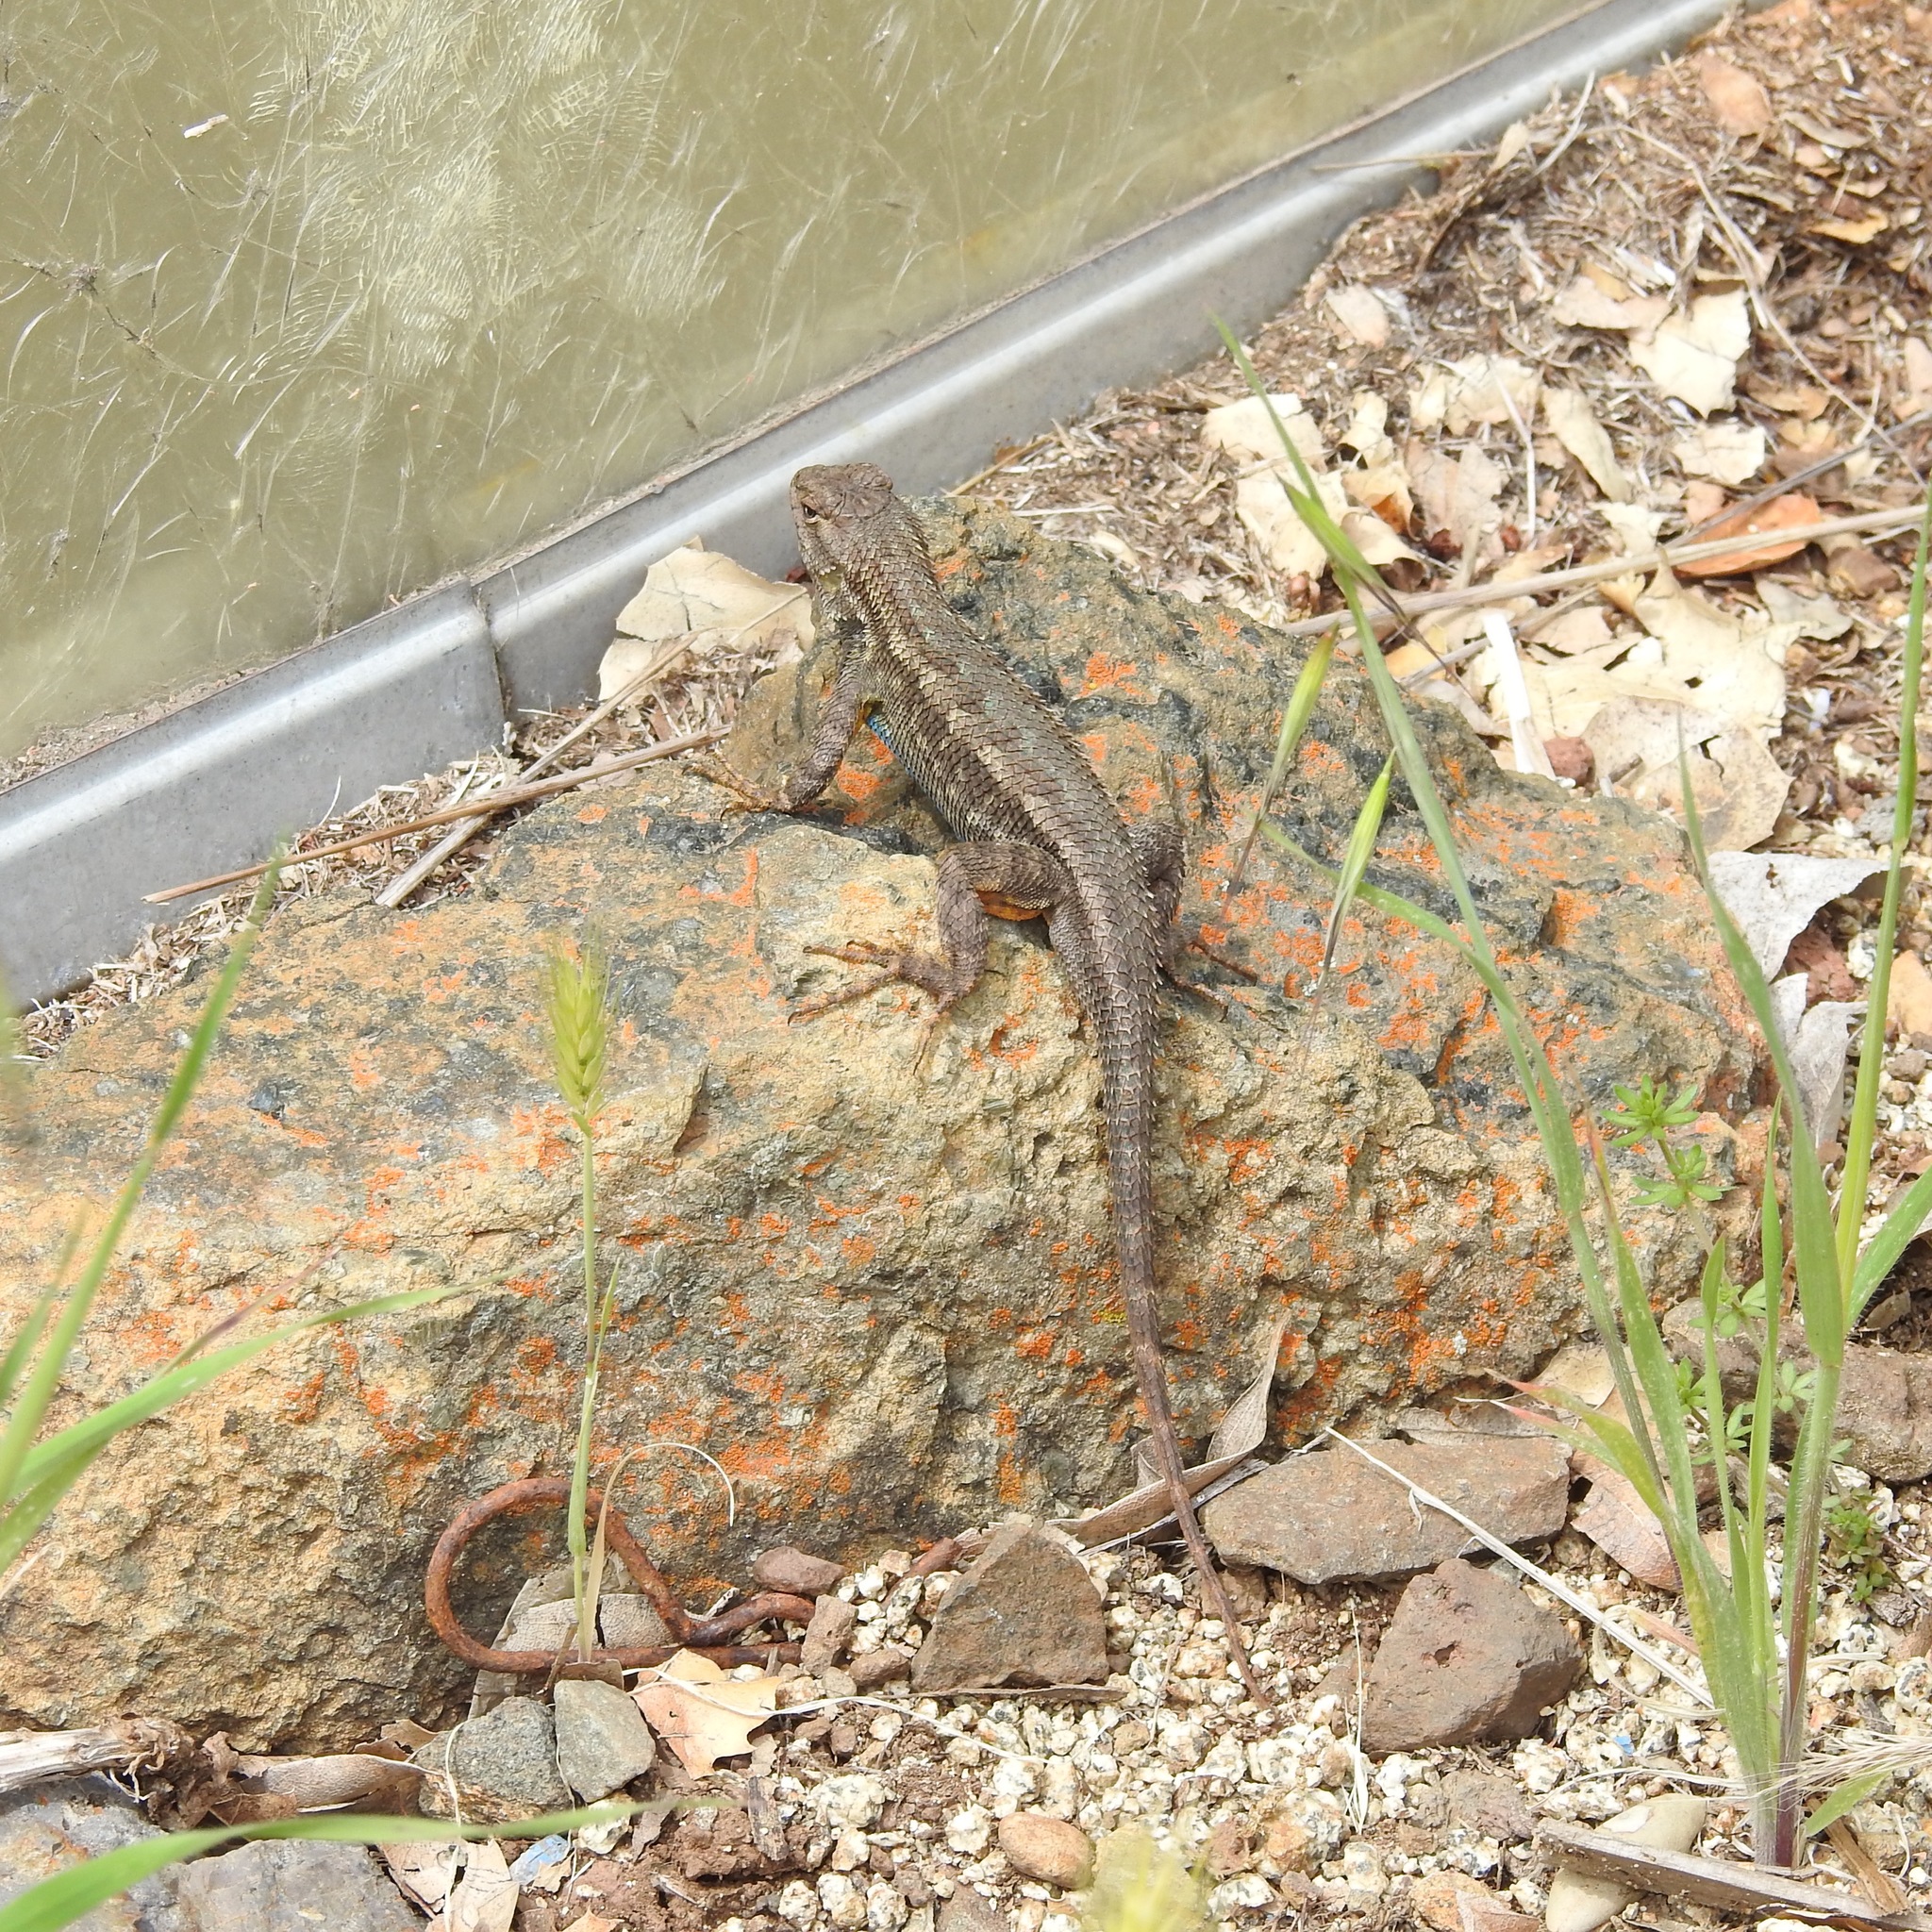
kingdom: Animalia
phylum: Chordata
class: Squamata
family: Phrynosomatidae
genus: Sceloporus
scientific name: Sceloporus occidentalis
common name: Western fence lizard
